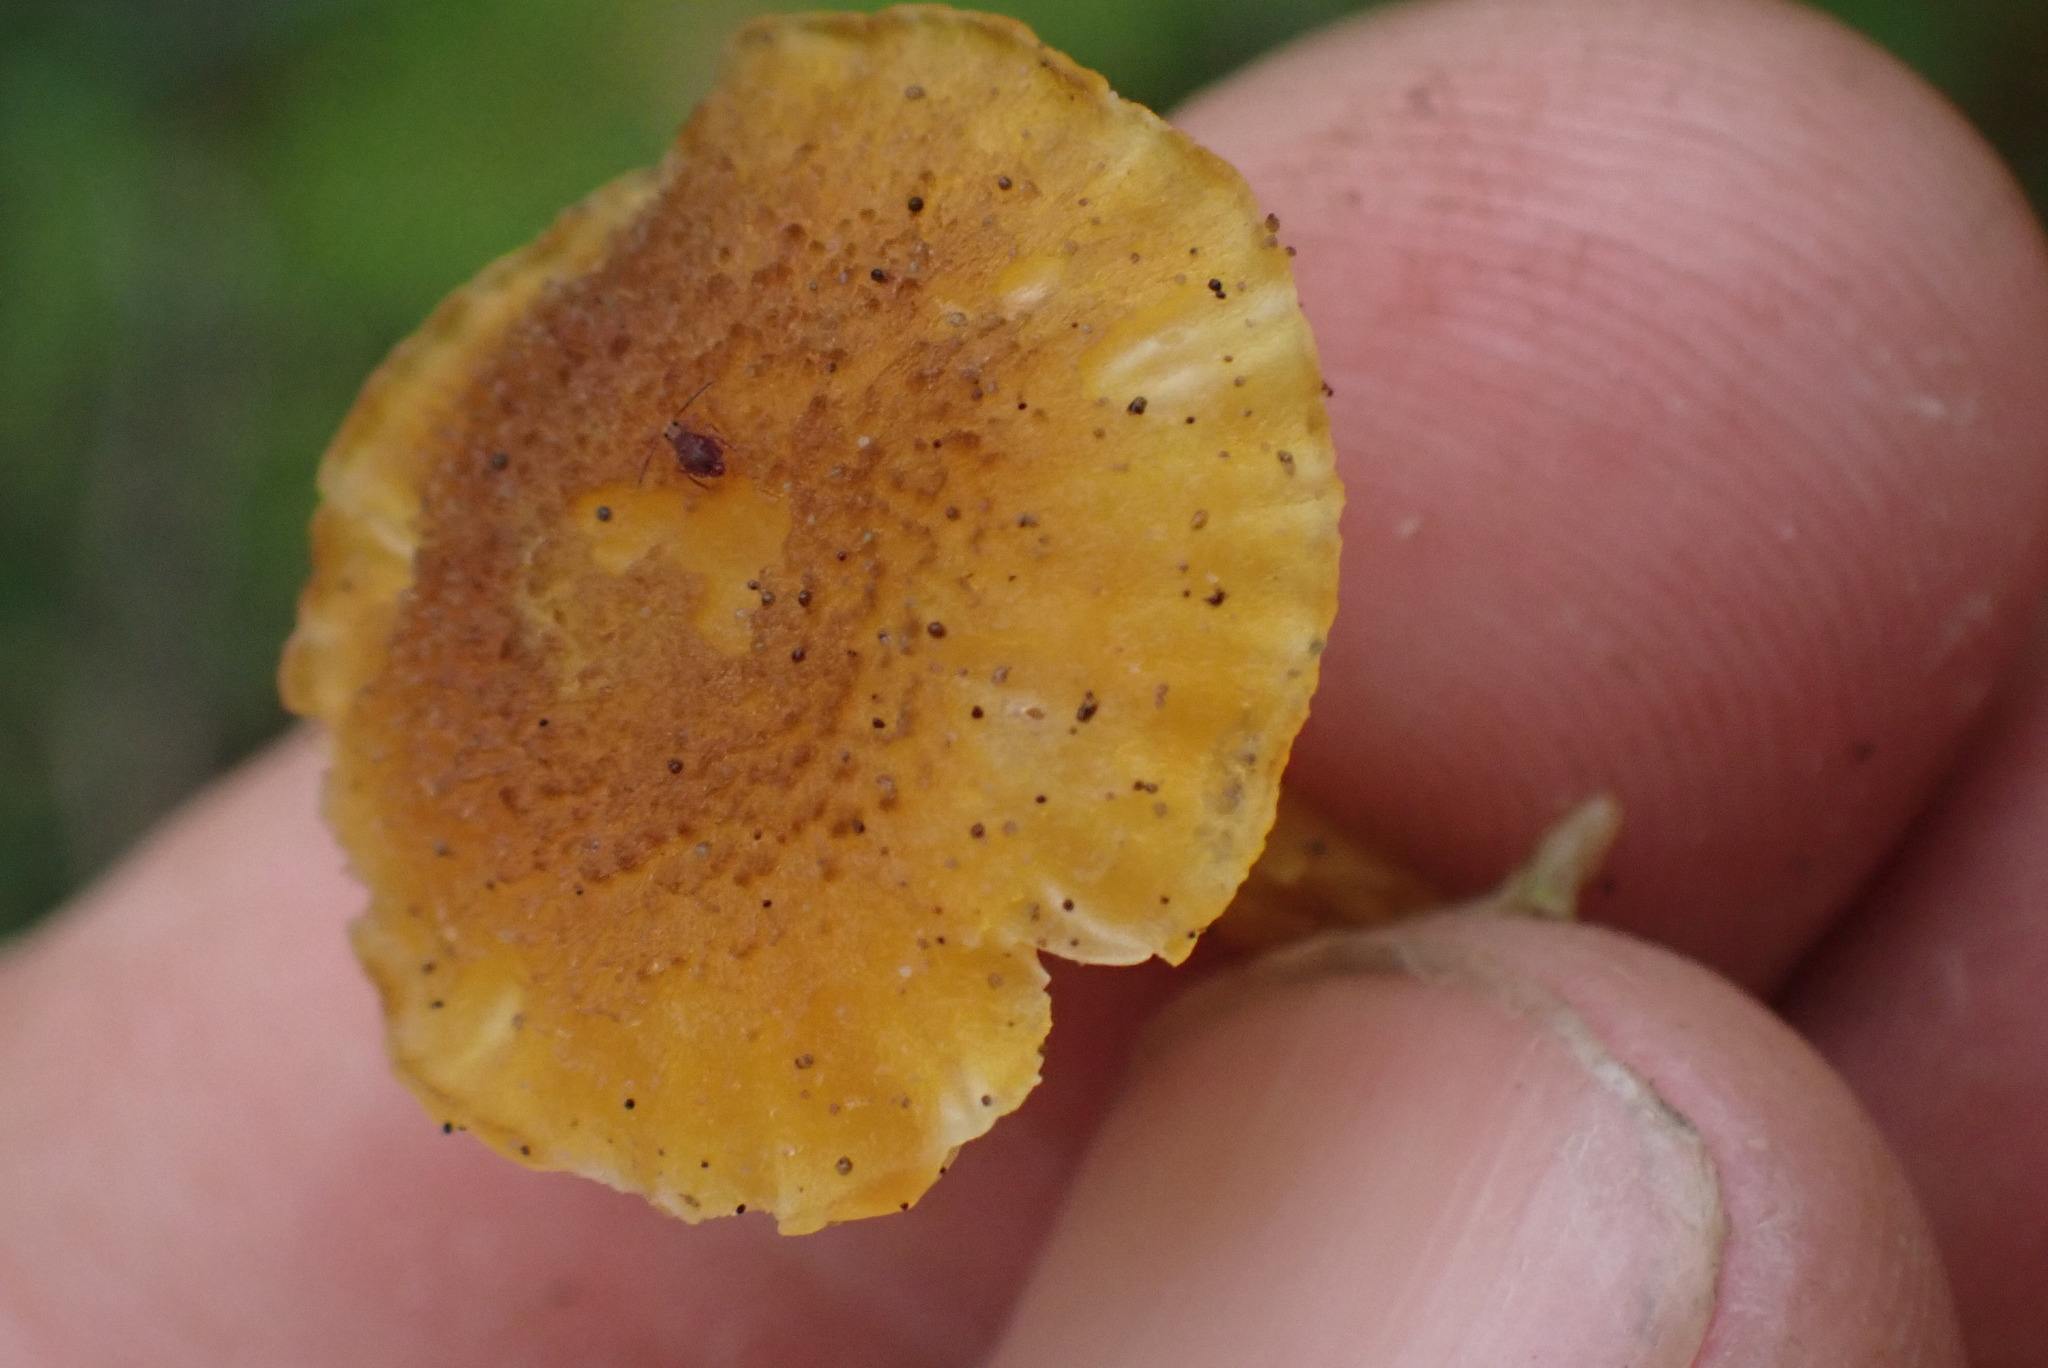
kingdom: Fungi
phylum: Basidiomycota
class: Agaricomycetes
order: Agaricales
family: Hygrophoraceae
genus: Hygrocybe
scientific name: Hygrocybe cantharellus
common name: Goblet waxcap
